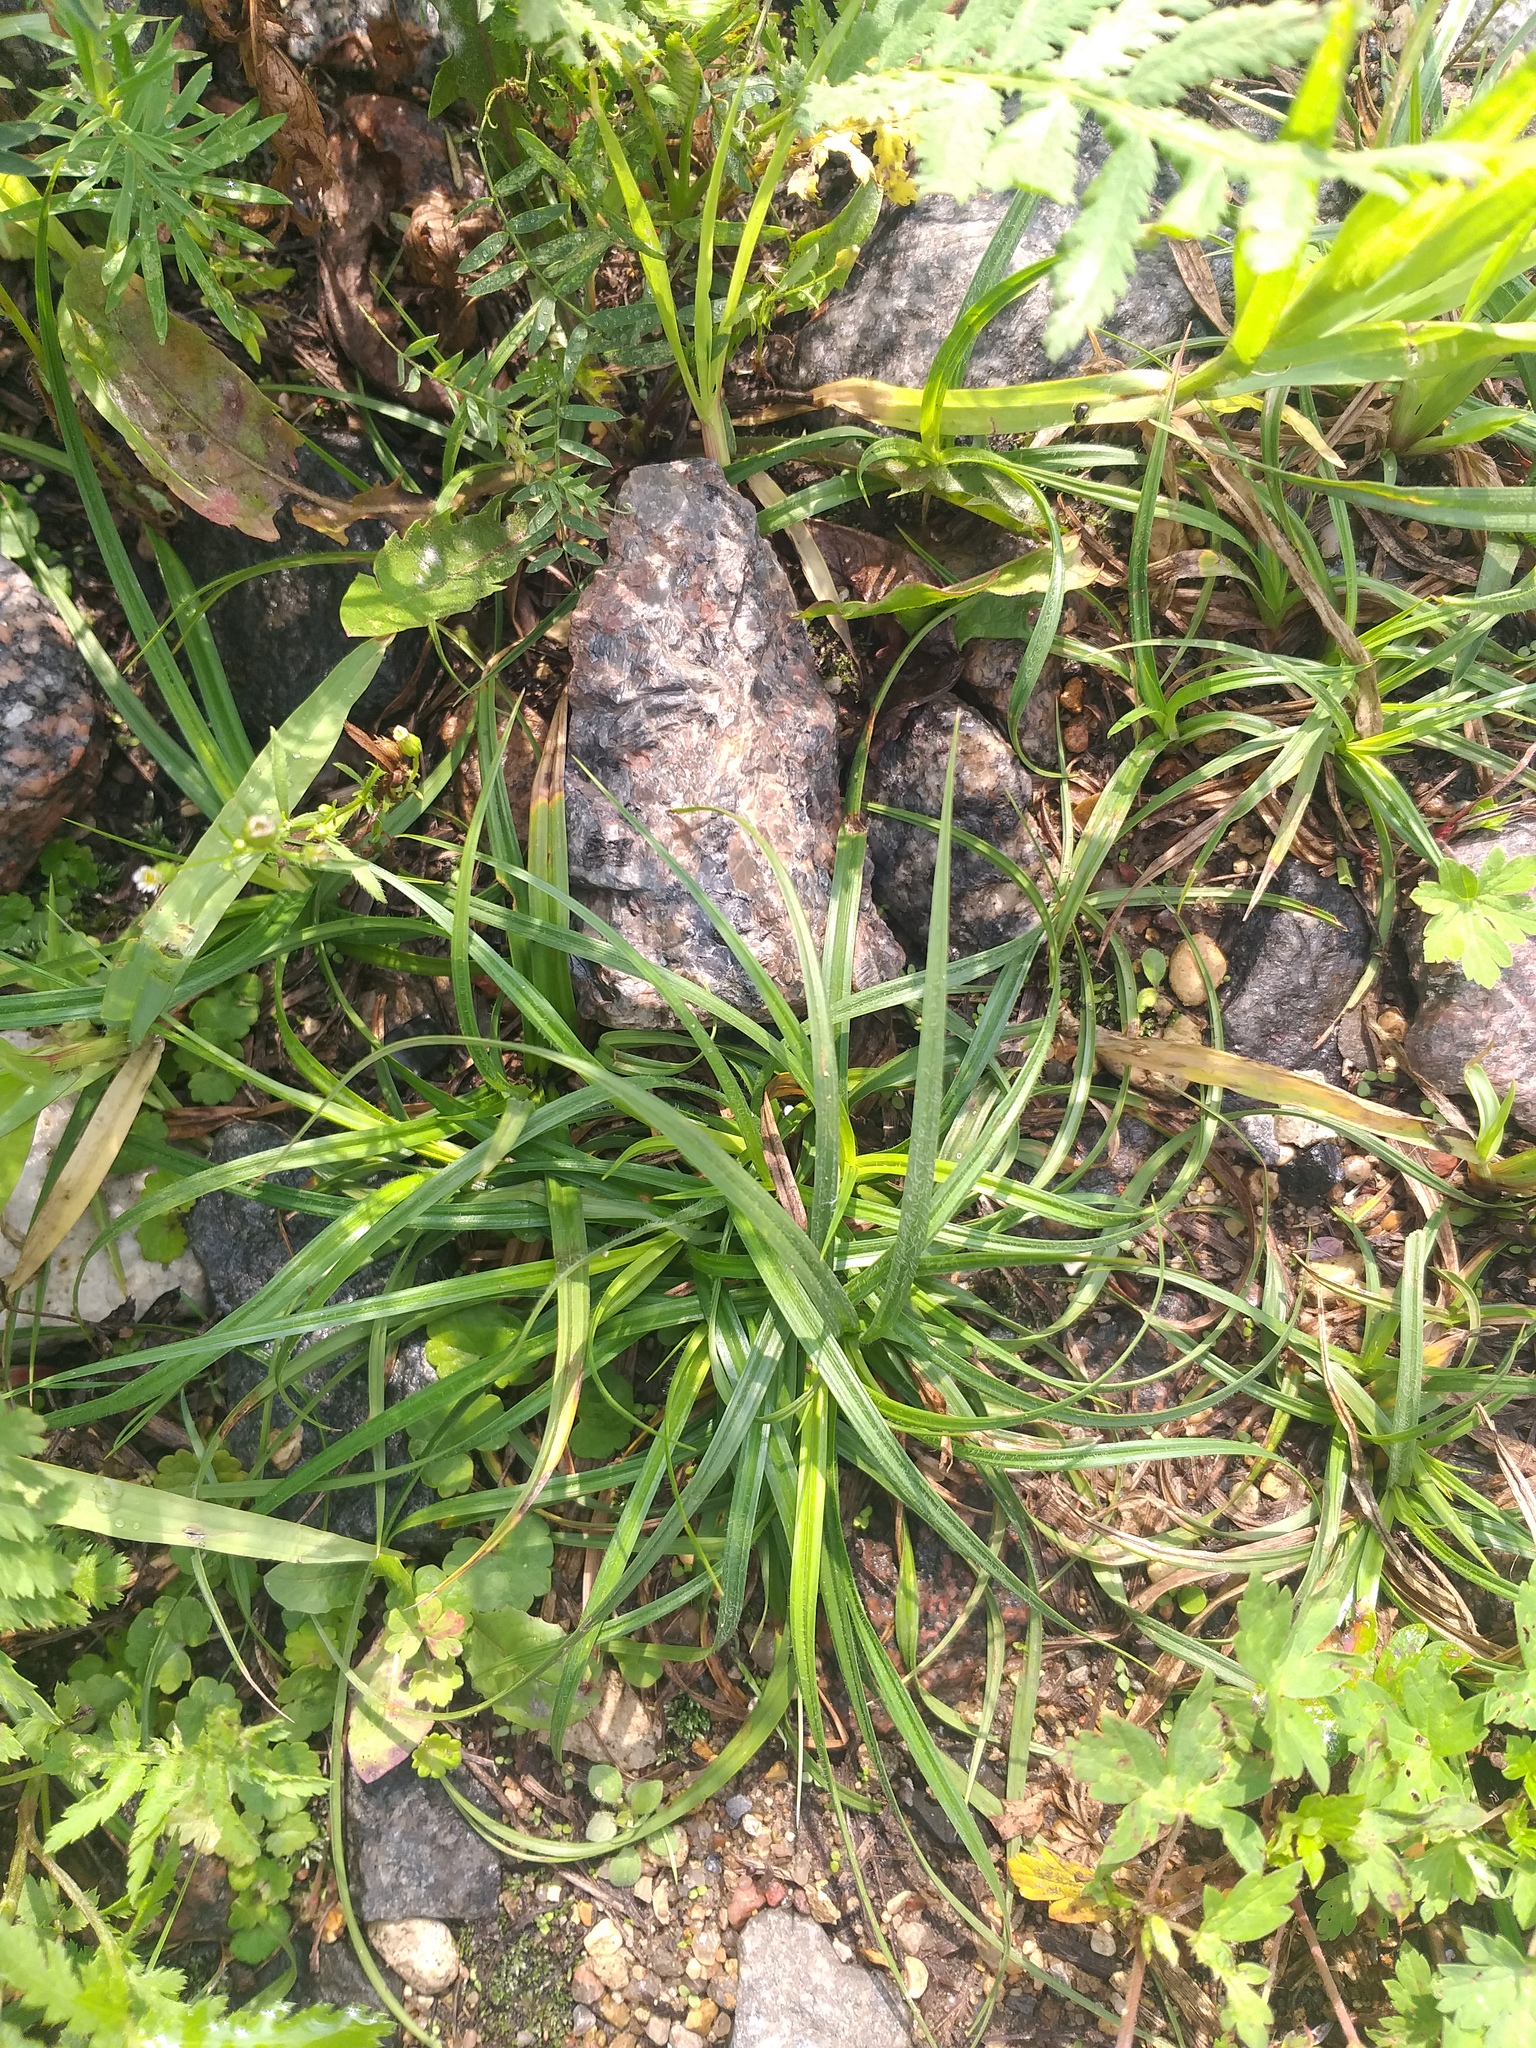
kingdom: Plantae
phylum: Tracheophyta
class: Liliopsida
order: Poales
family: Cyperaceae
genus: Carex
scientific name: Carex hirta
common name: Hairy sedge
